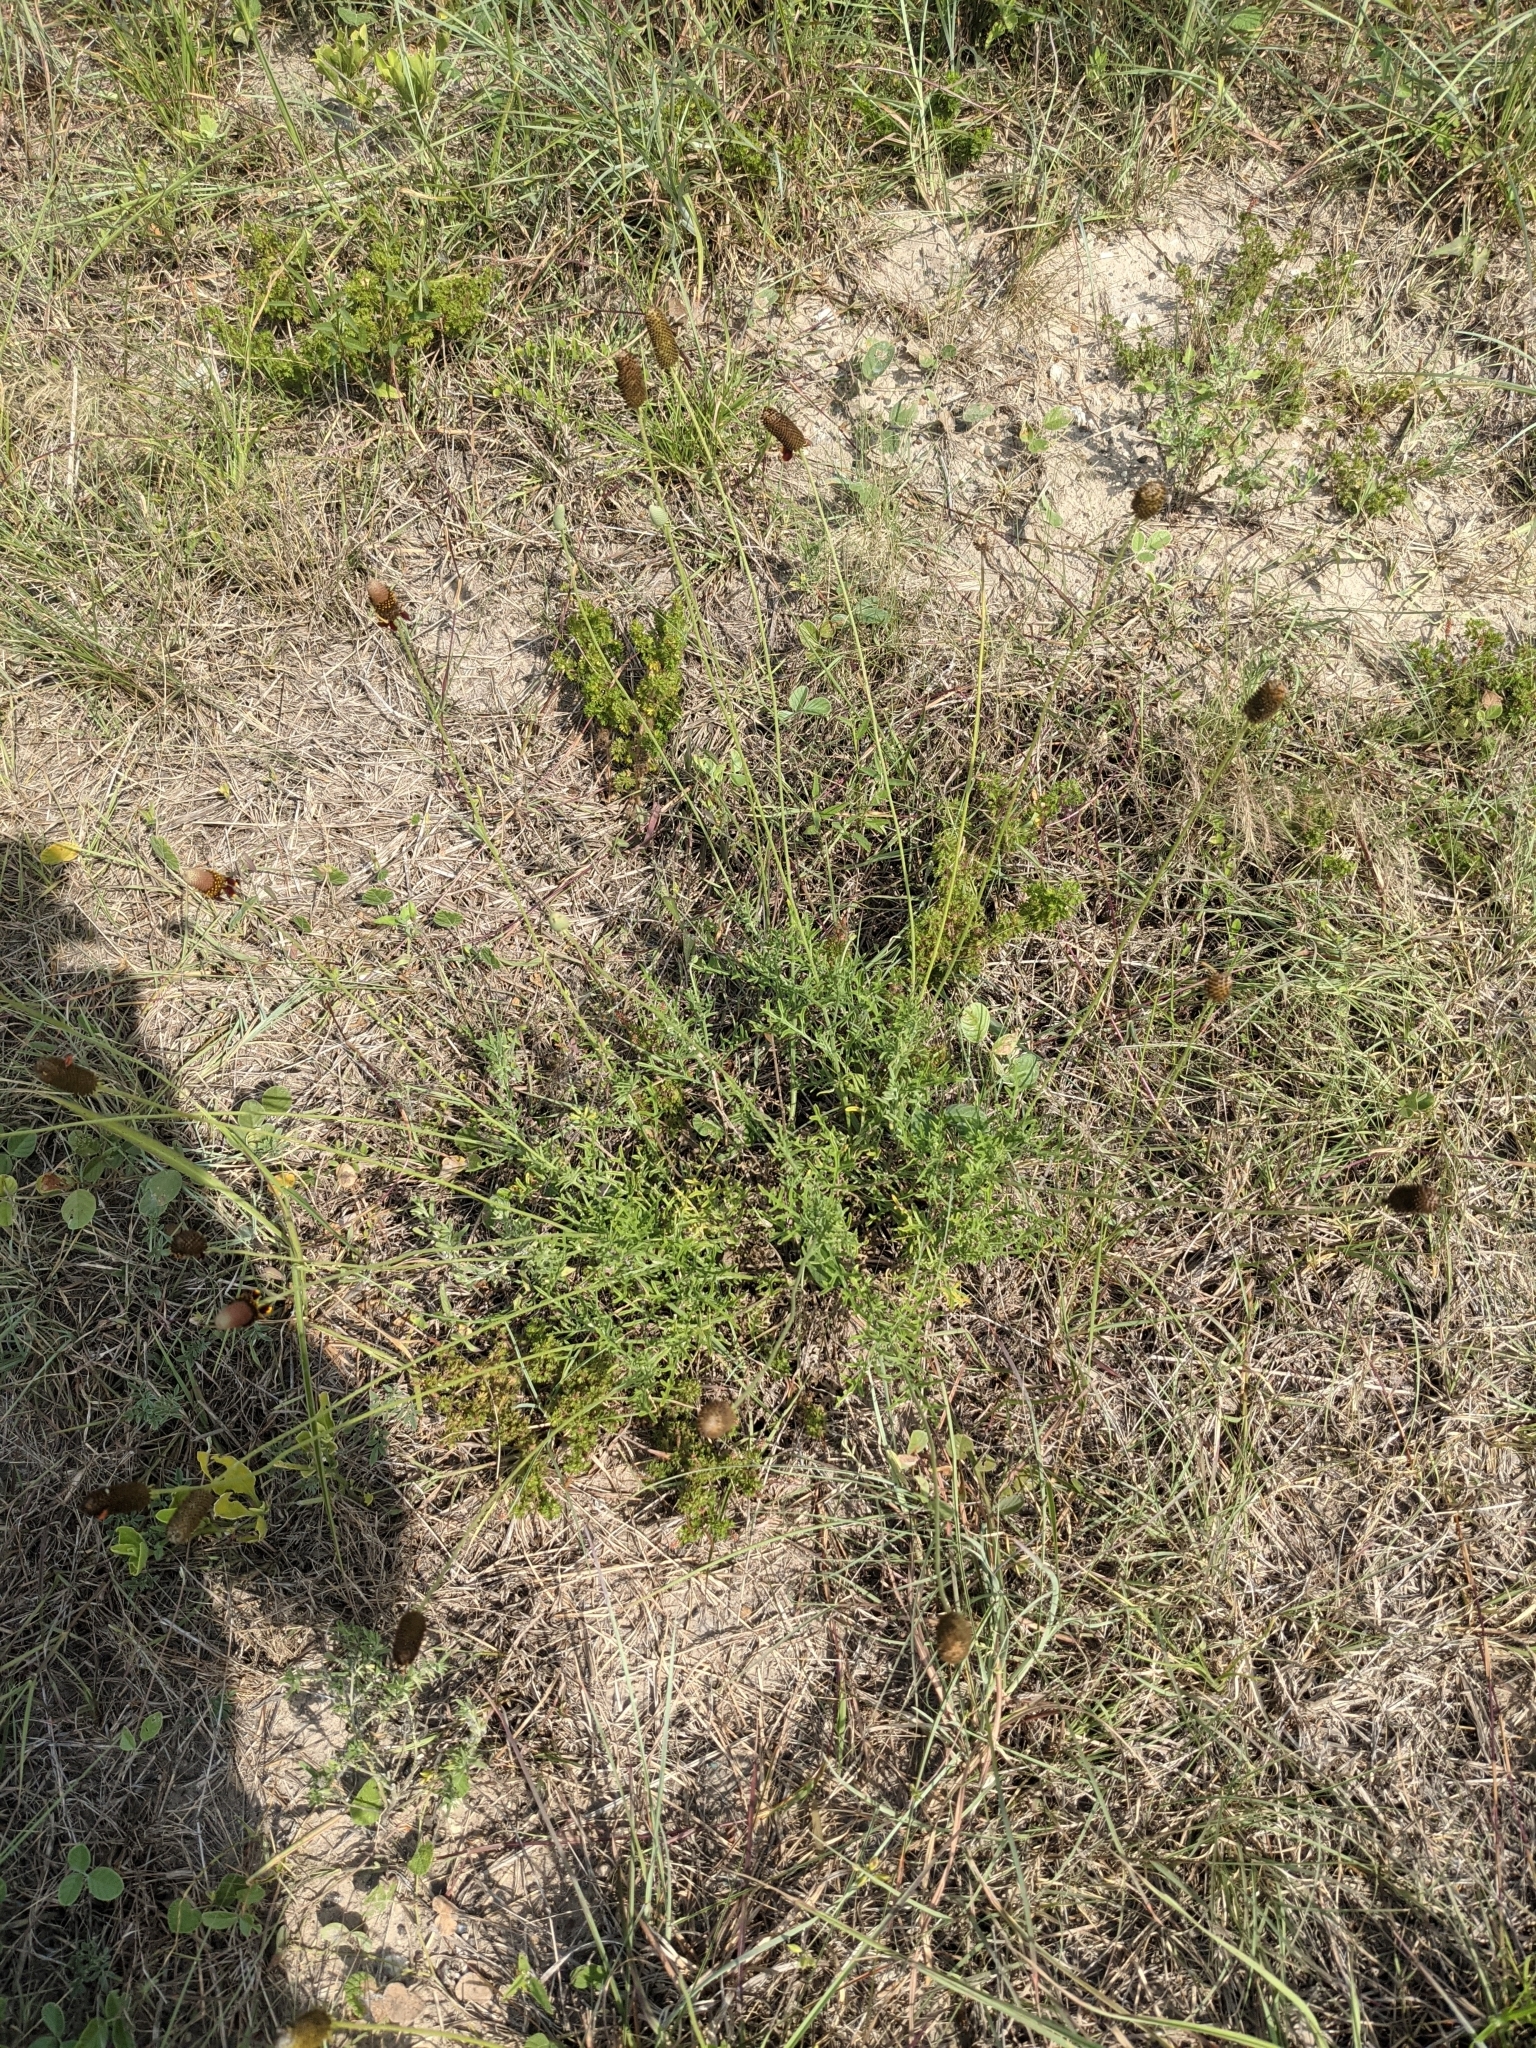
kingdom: Plantae
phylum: Tracheophyta
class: Magnoliopsida
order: Asterales
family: Asteraceae
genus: Ratibida
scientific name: Ratibida peduncularis
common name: Naked prairie-coneflower
